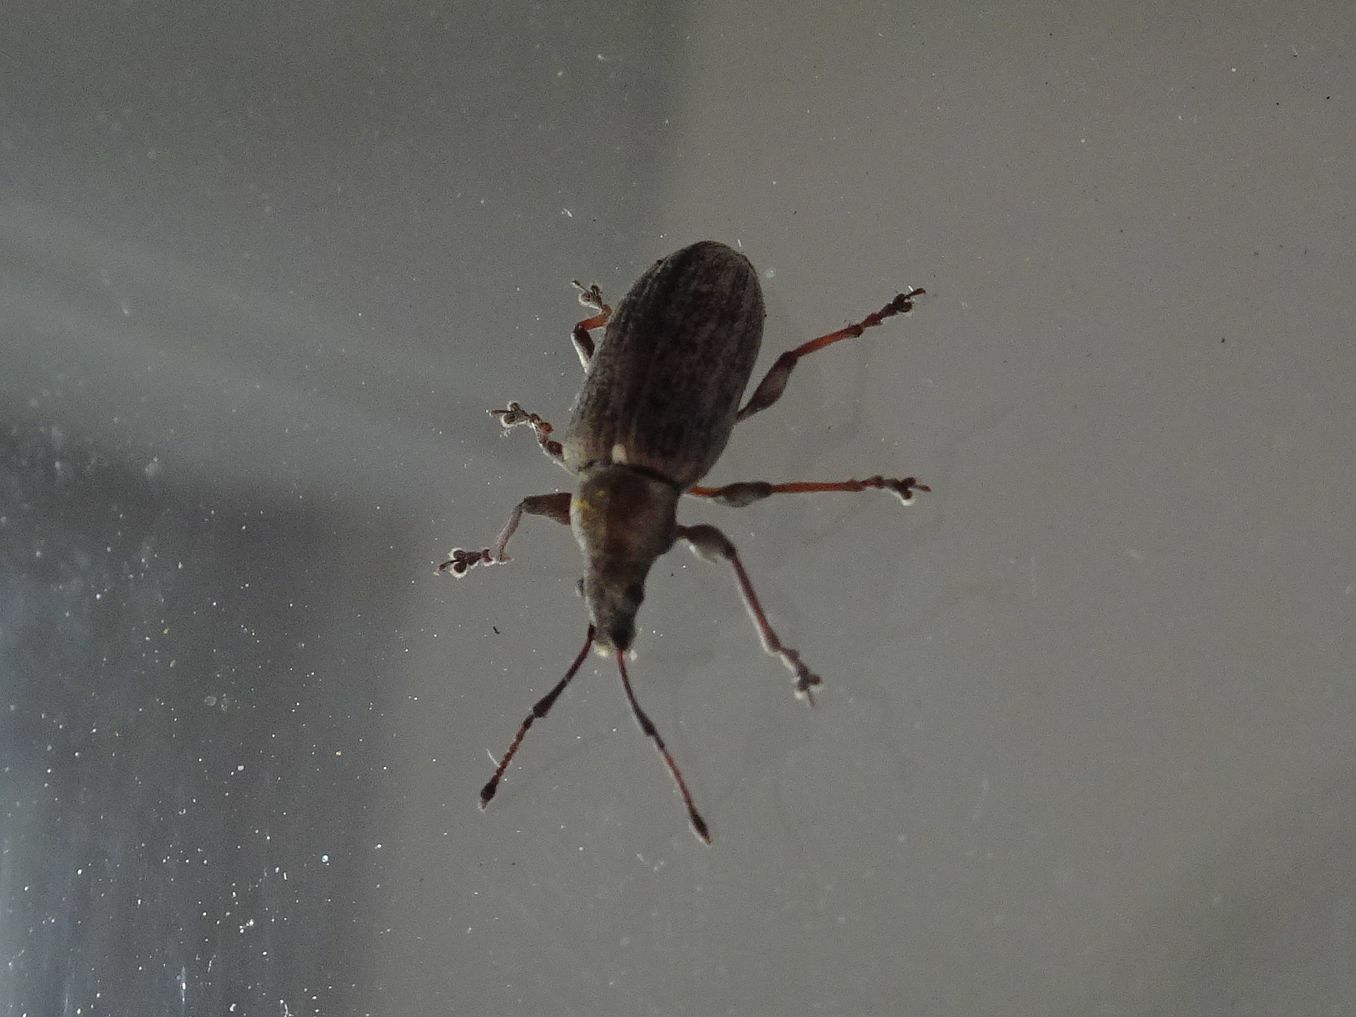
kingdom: Animalia
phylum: Arthropoda
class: Insecta
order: Coleoptera
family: Curculionidae
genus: Phyllobius
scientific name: Phyllobius pyri
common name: Common leaf weevil
